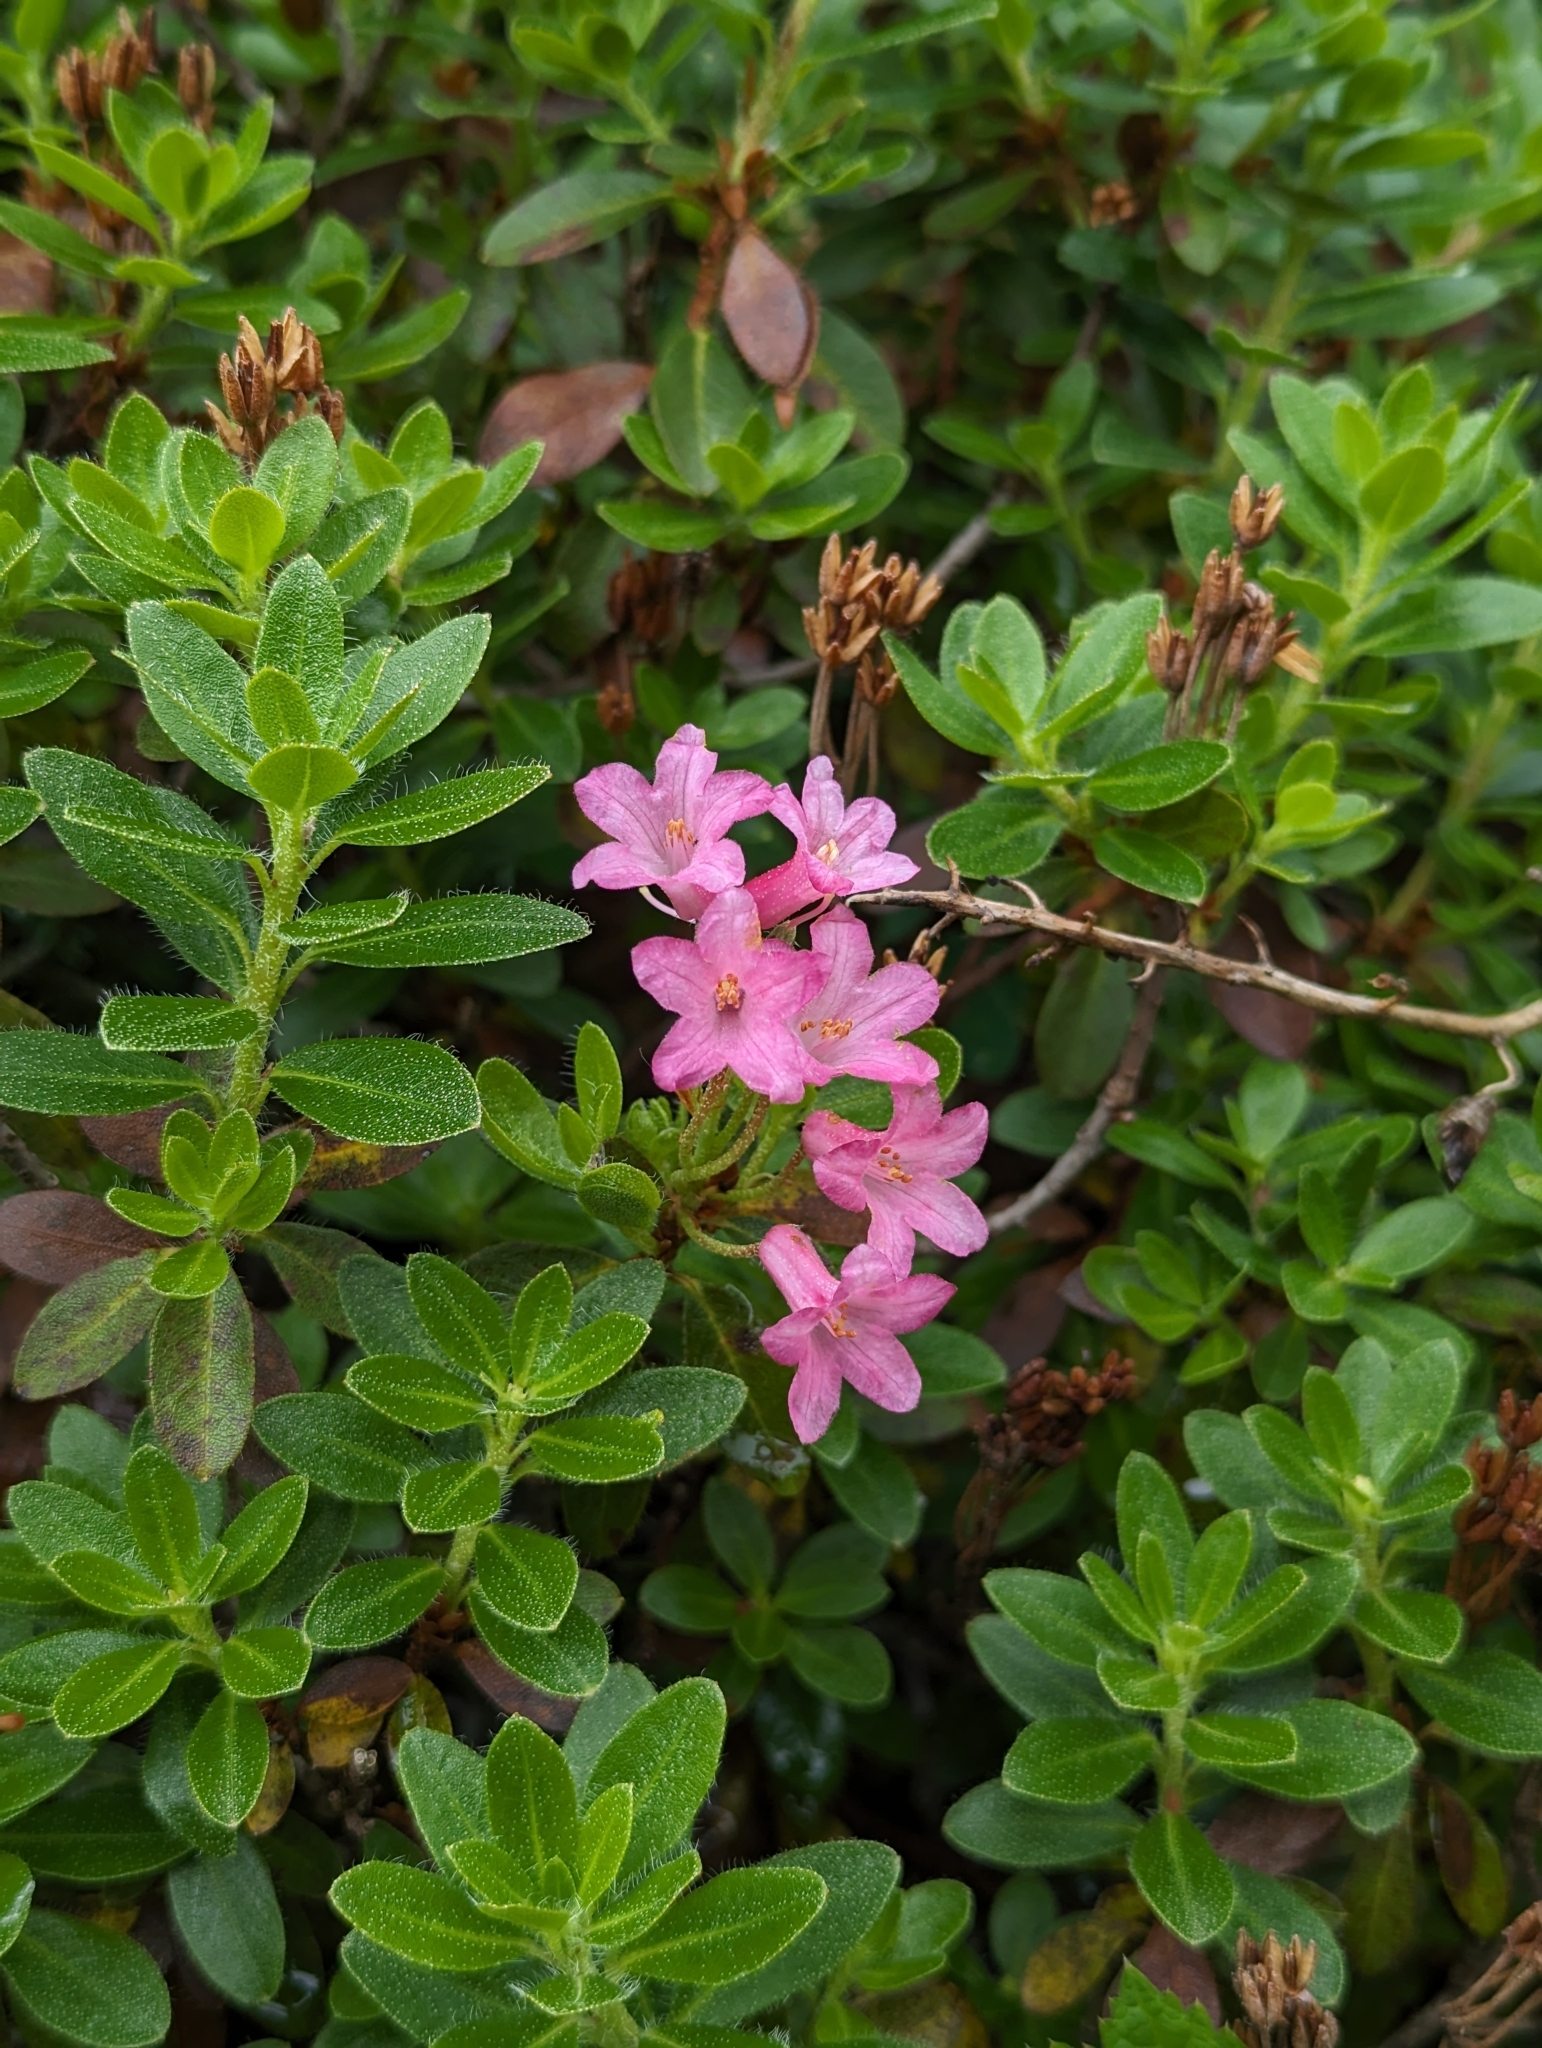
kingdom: Plantae
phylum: Tracheophyta
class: Magnoliopsida
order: Ericales
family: Ericaceae
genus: Rhododendron
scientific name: Rhododendron hirsutum
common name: Hairy alpenrose
